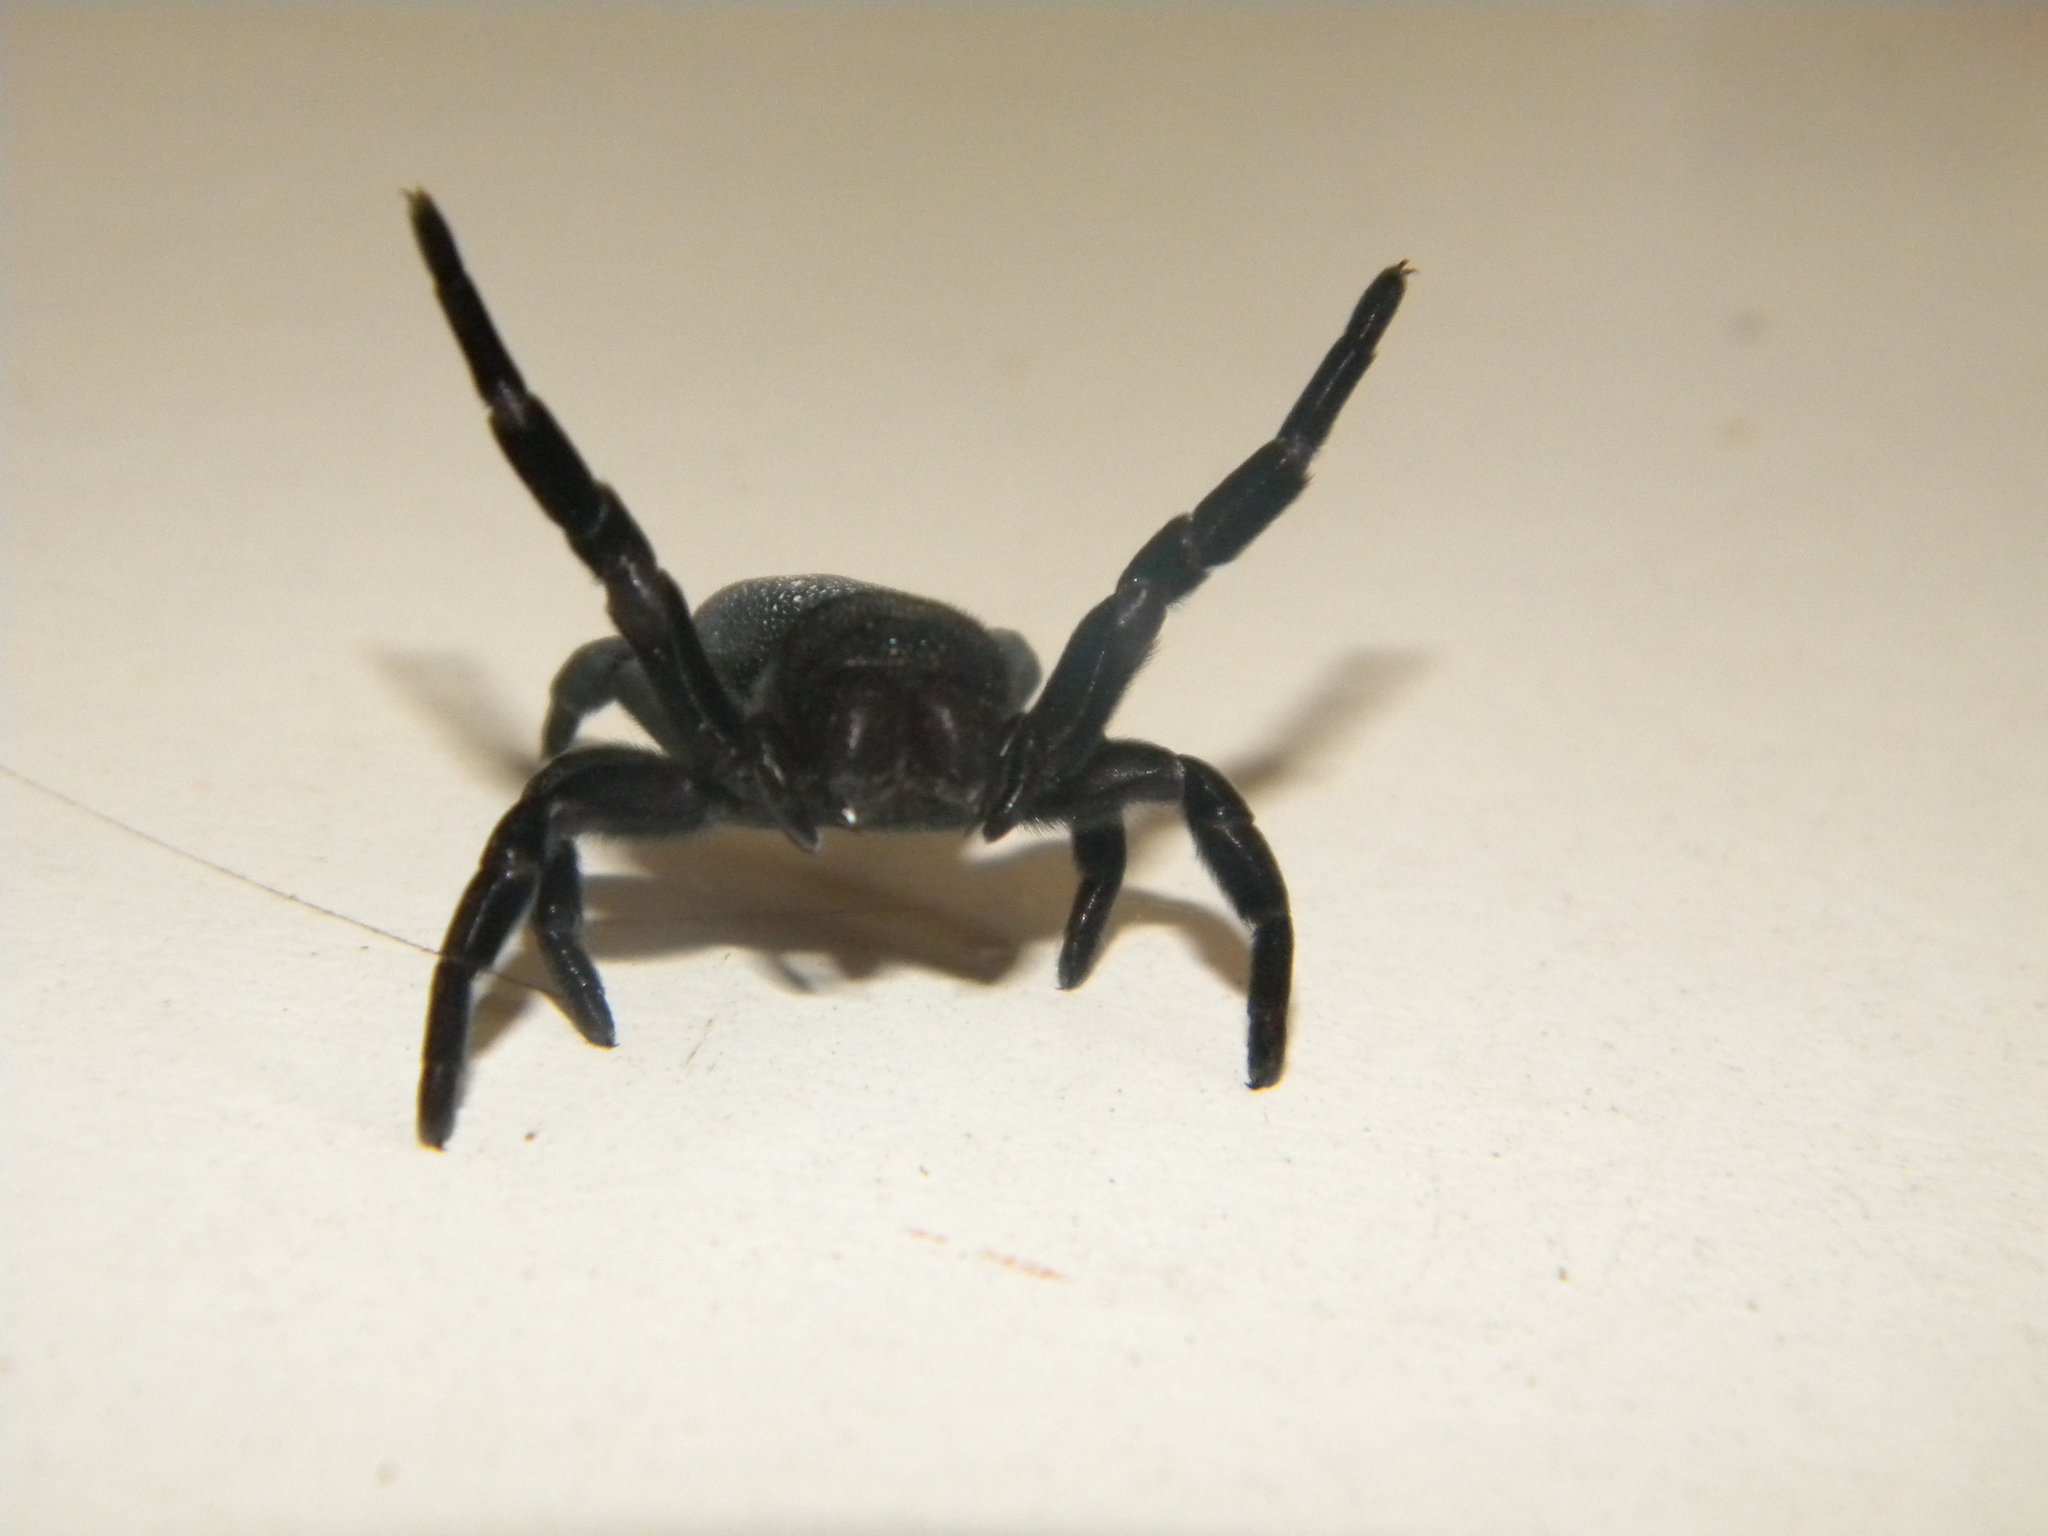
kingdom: Animalia
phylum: Arthropoda
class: Arachnida
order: Araneae
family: Eresidae
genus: Eresus
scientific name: Eresus
